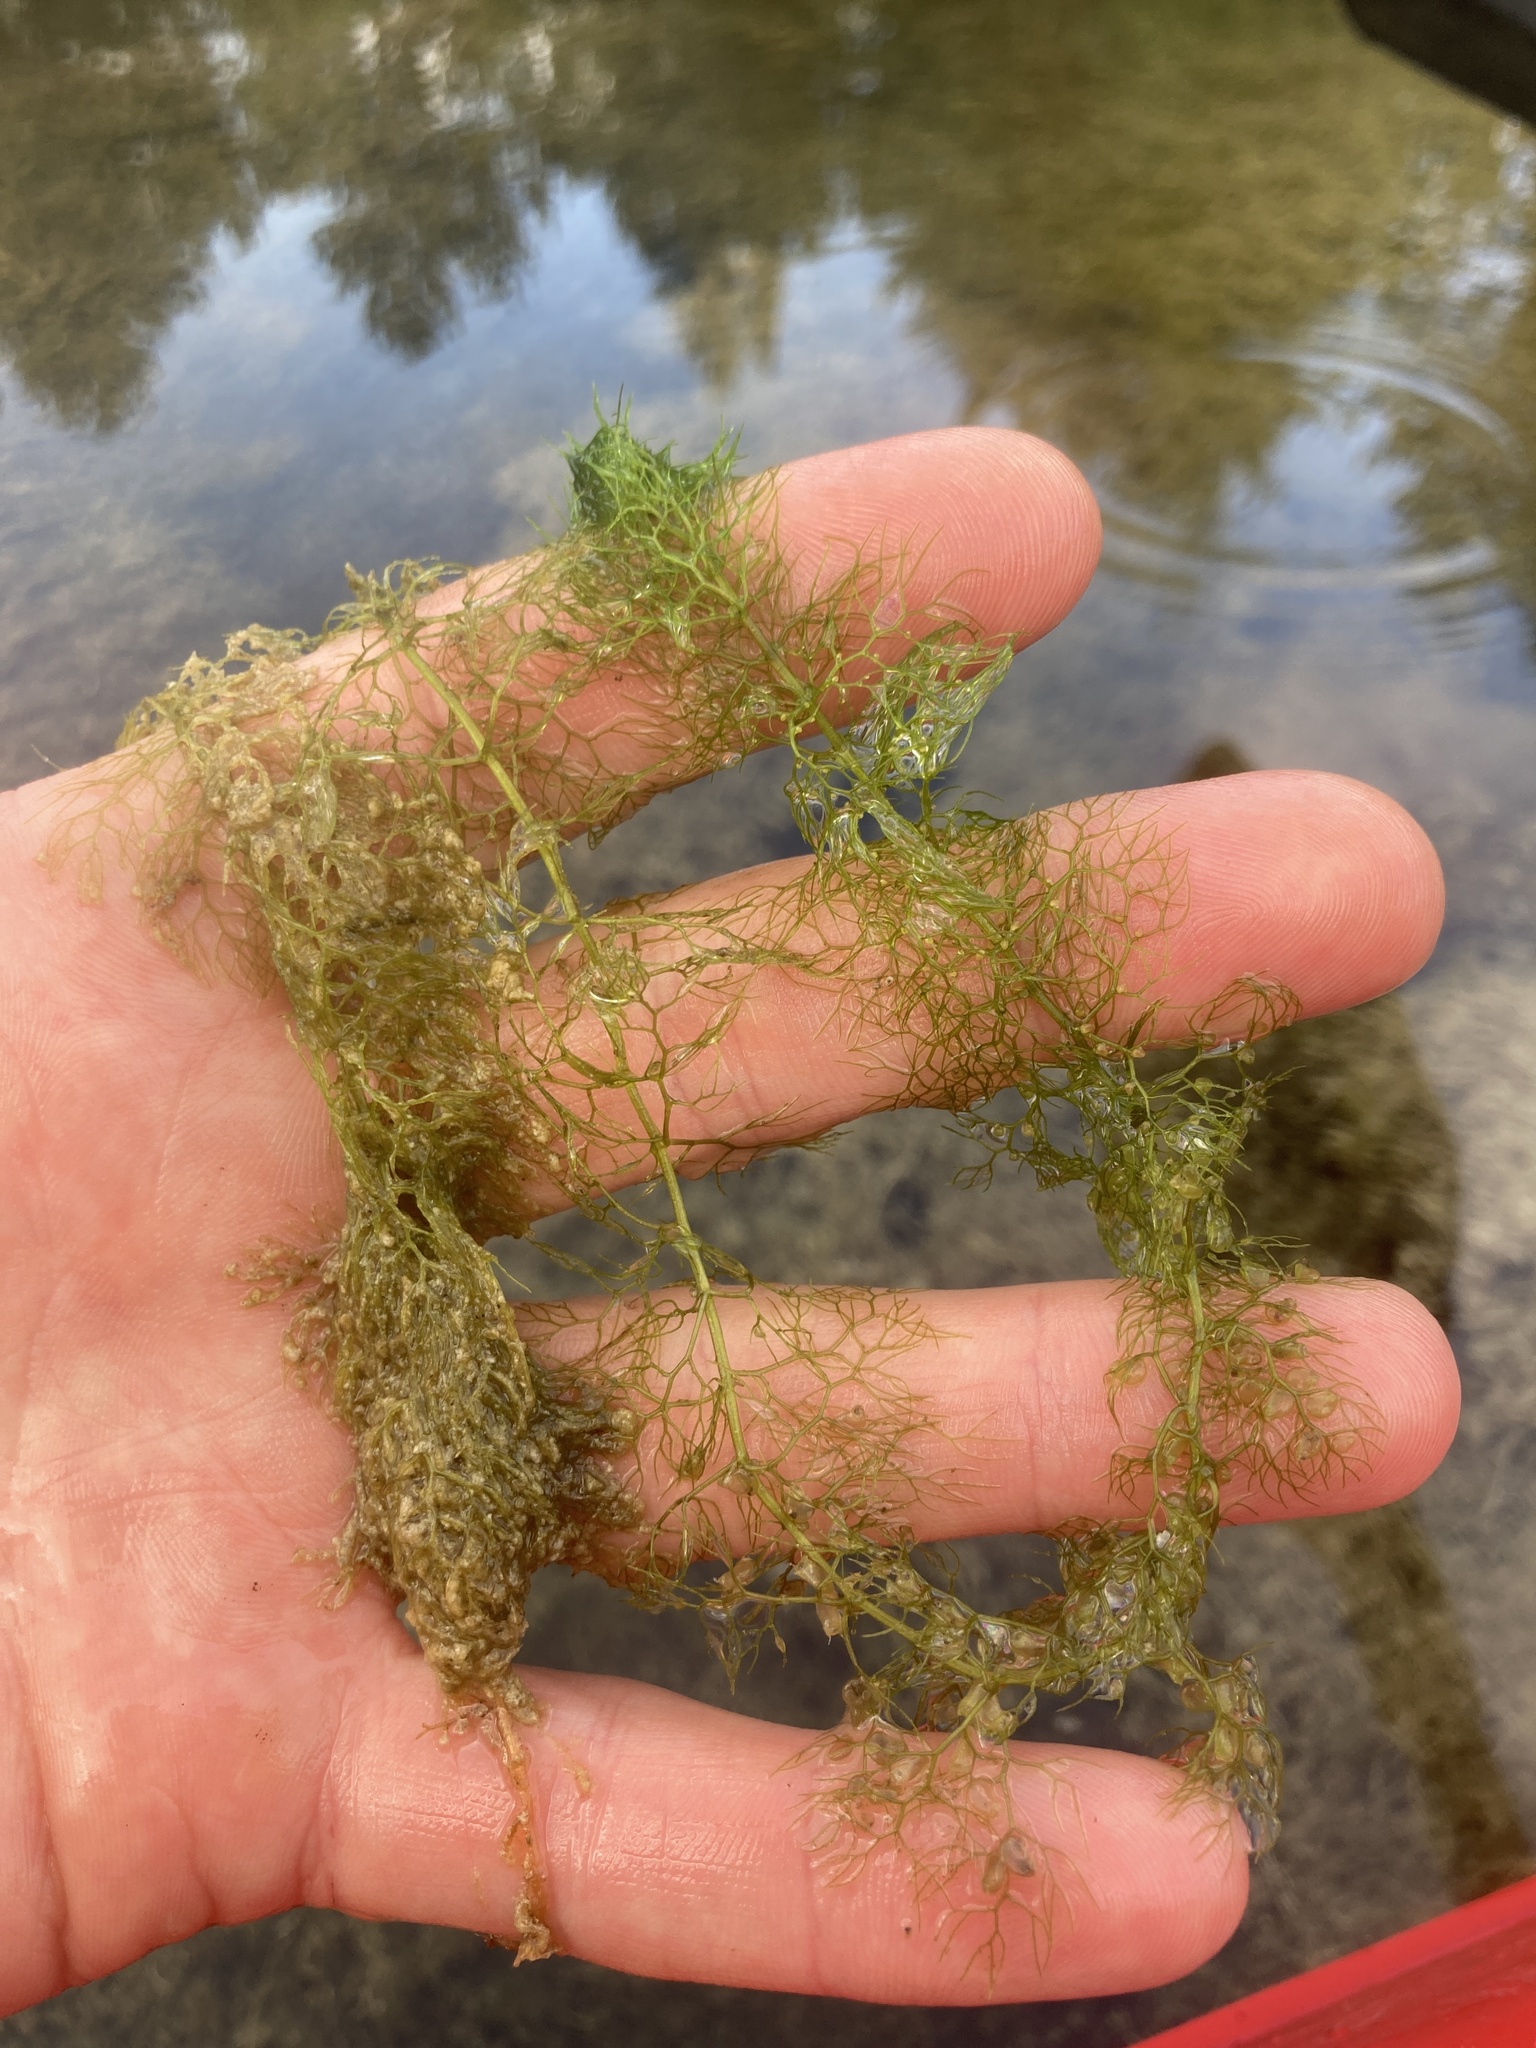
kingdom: Plantae
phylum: Tracheophyta
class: Magnoliopsida
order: Lamiales
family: Lentibulariaceae
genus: Utricularia
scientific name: Utricularia macrorhiza
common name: Common bladderwort
